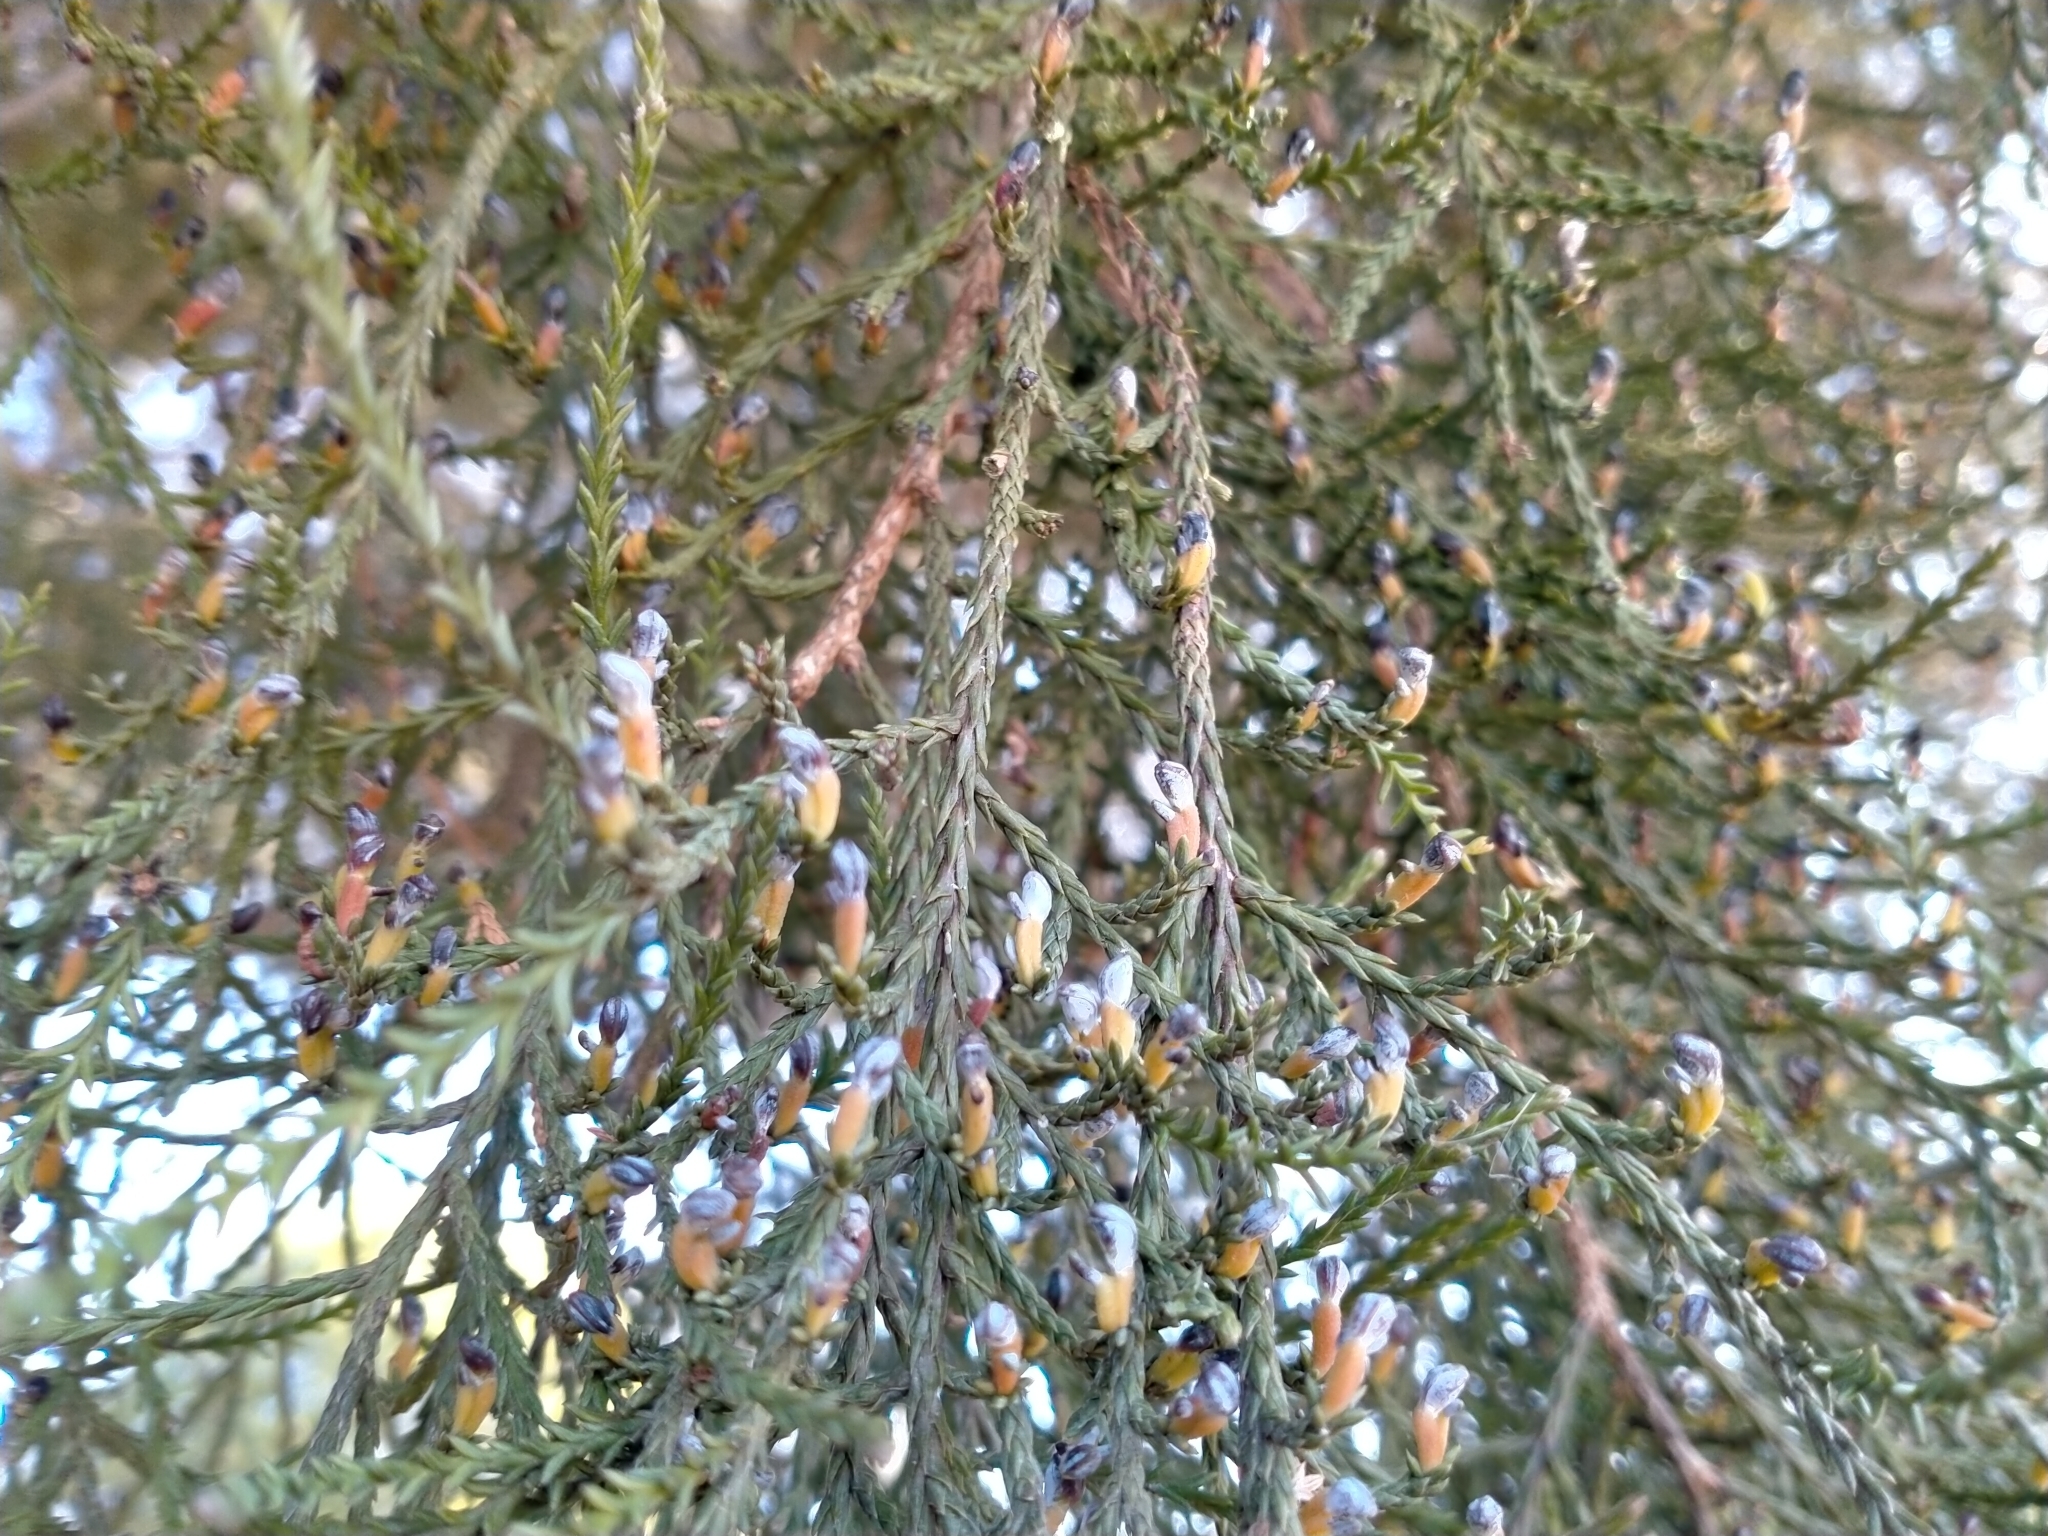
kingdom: Plantae
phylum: Tracheophyta
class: Pinopsida
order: Pinales
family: Podocarpaceae
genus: Dacrycarpus
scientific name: Dacrycarpus dacrydioides
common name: White pine
